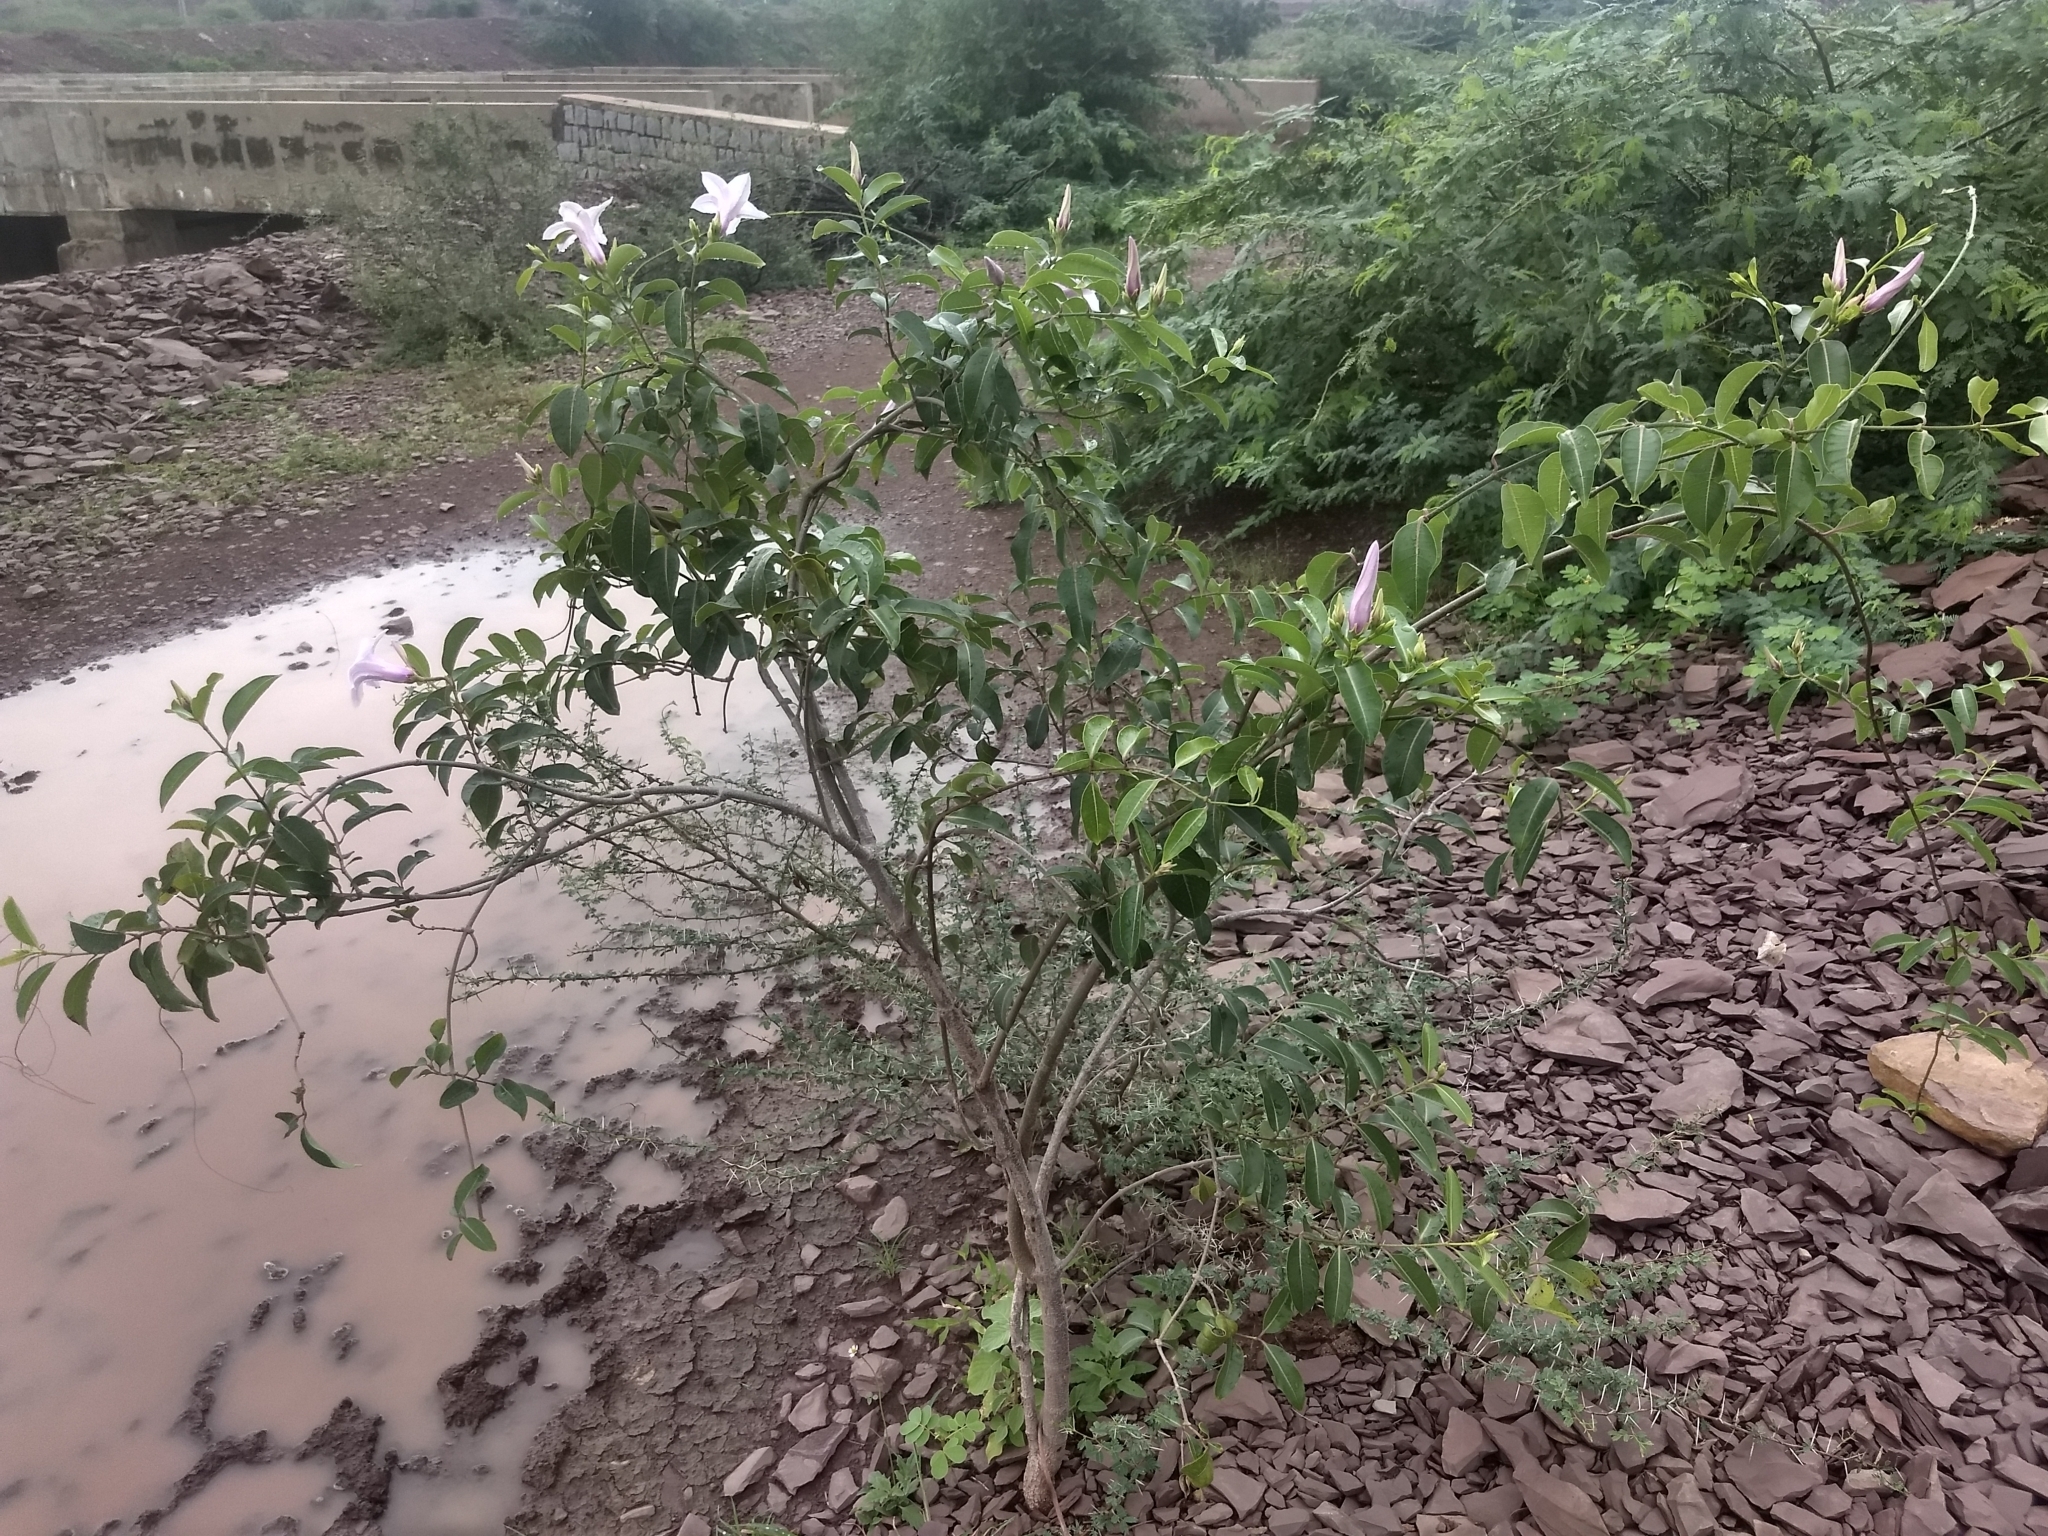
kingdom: Plantae
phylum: Tracheophyta
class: Magnoliopsida
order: Gentianales
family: Apocynaceae
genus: Cryptostegia
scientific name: Cryptostegia grandiflora
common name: Palay rubbervine
